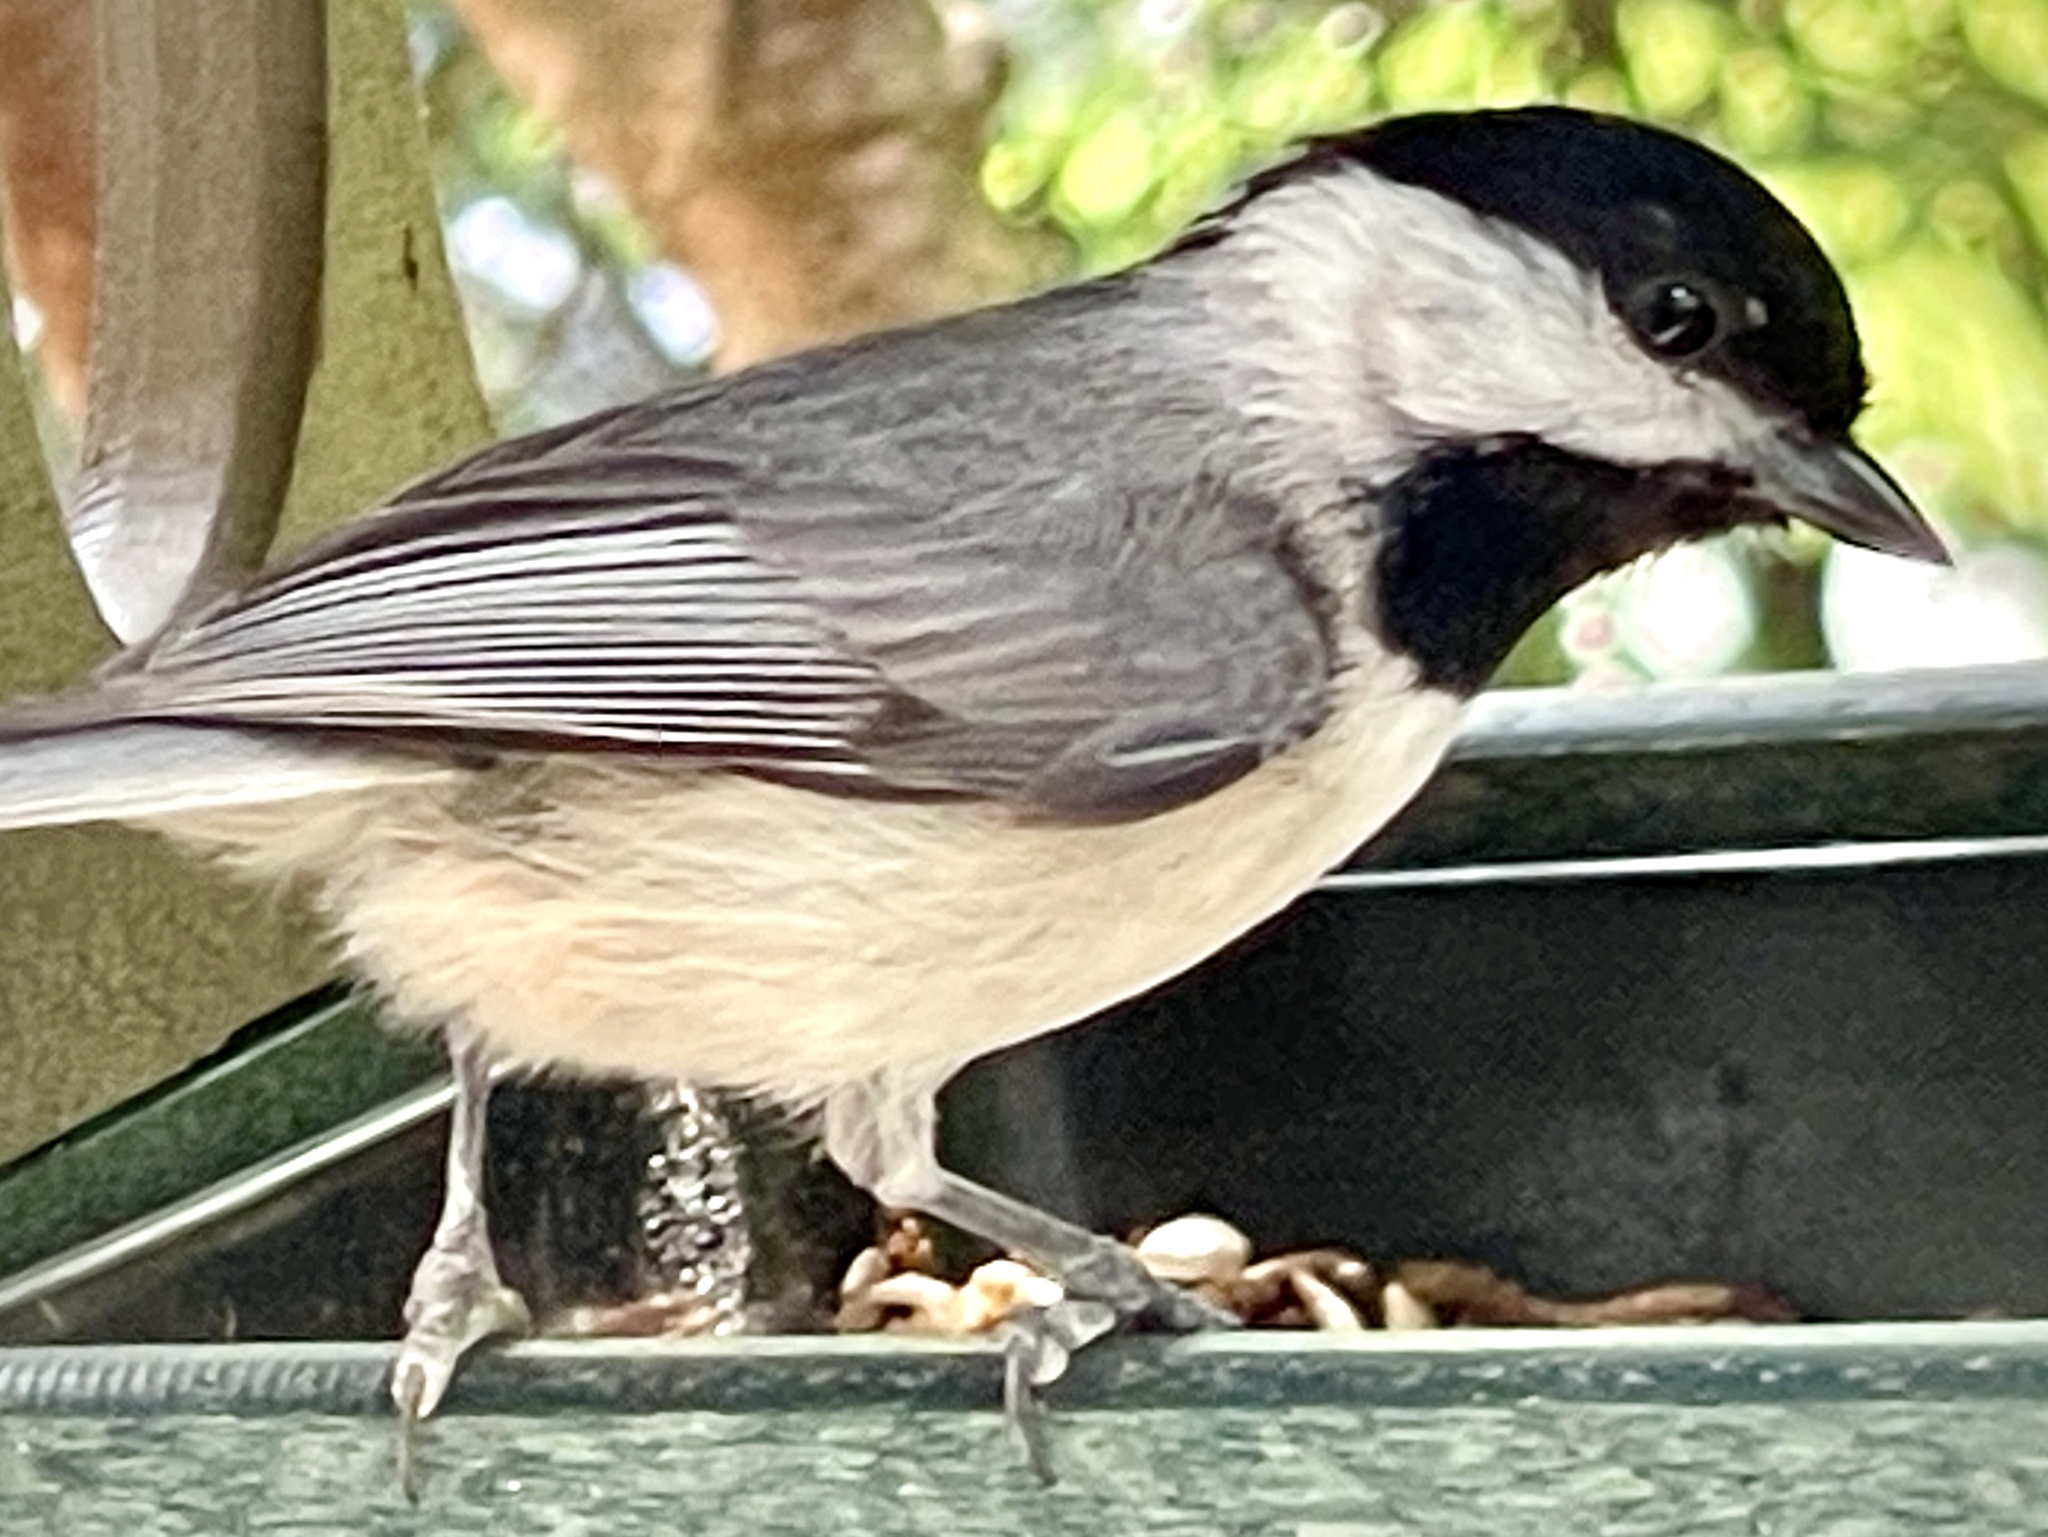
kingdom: Animalia
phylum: Chordata
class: Aves
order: Passeriformes
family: Paridae
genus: Poecile
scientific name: Poecile carolinensis
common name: Carolina chickadee
